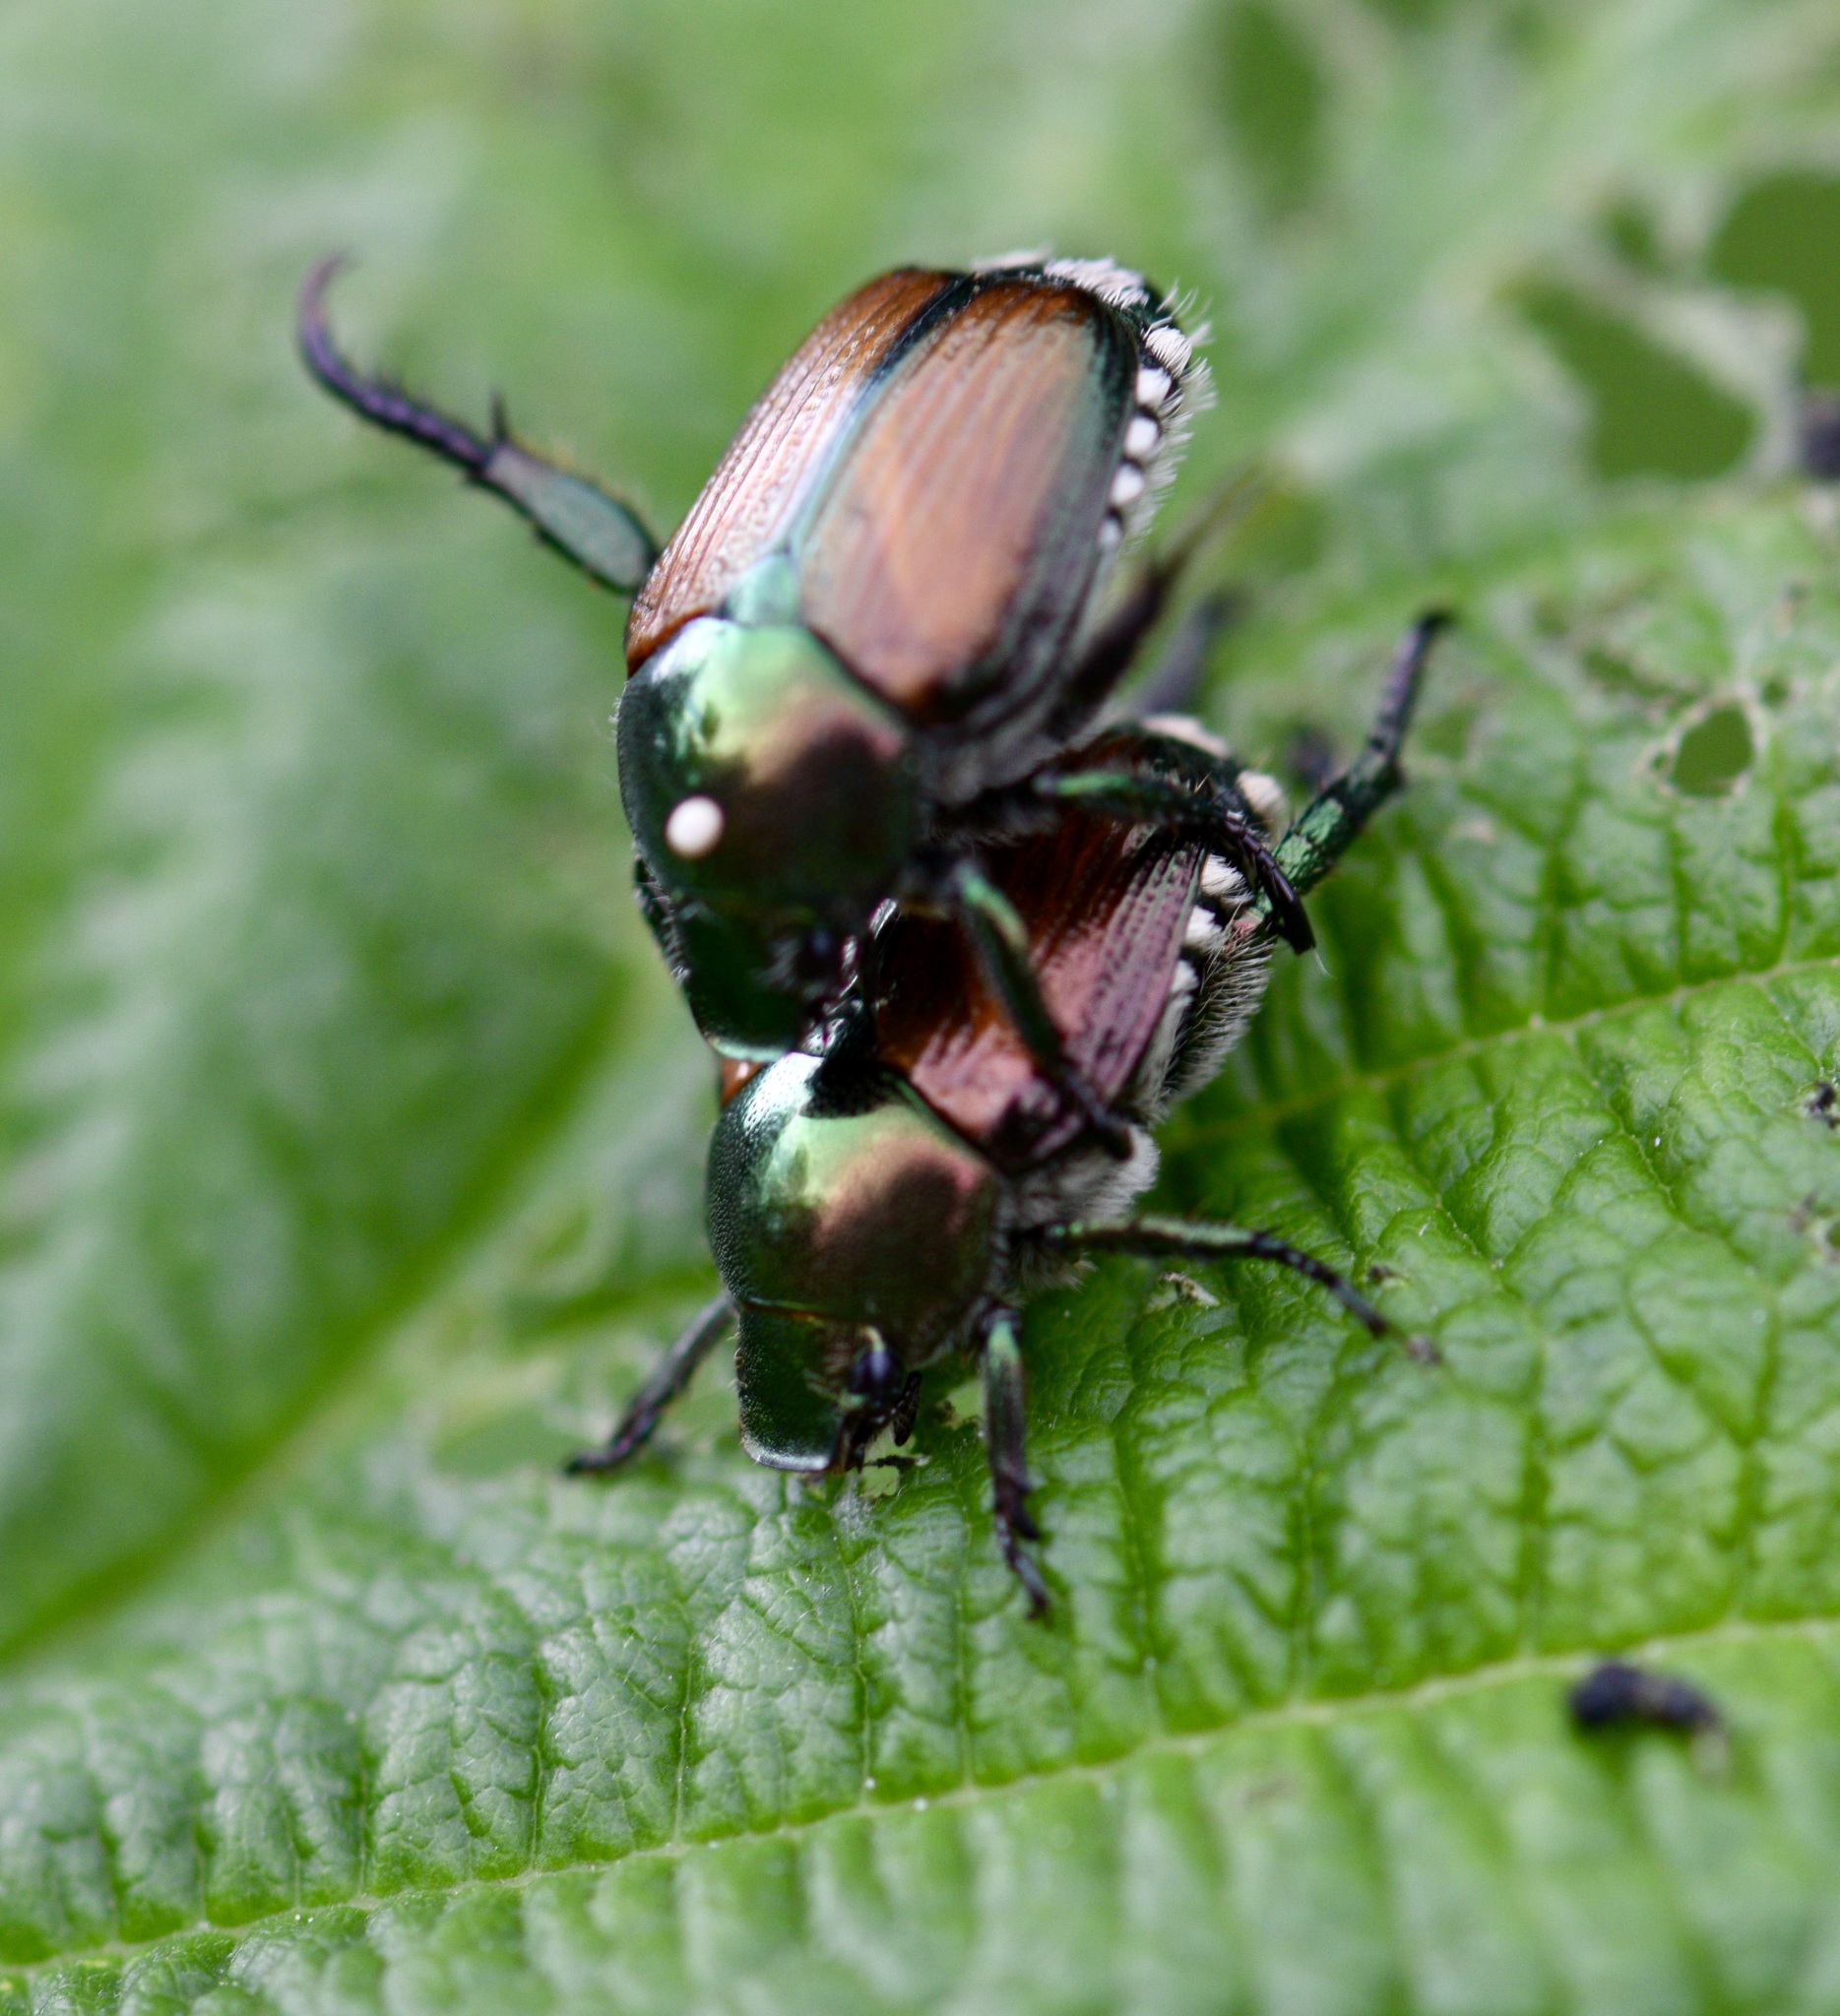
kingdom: Animalia
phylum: Arthropoda
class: Insecta
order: Coleoptera
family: Scarabaeidae
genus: Popillia
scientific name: Popillia japonica
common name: Japanese beetle
